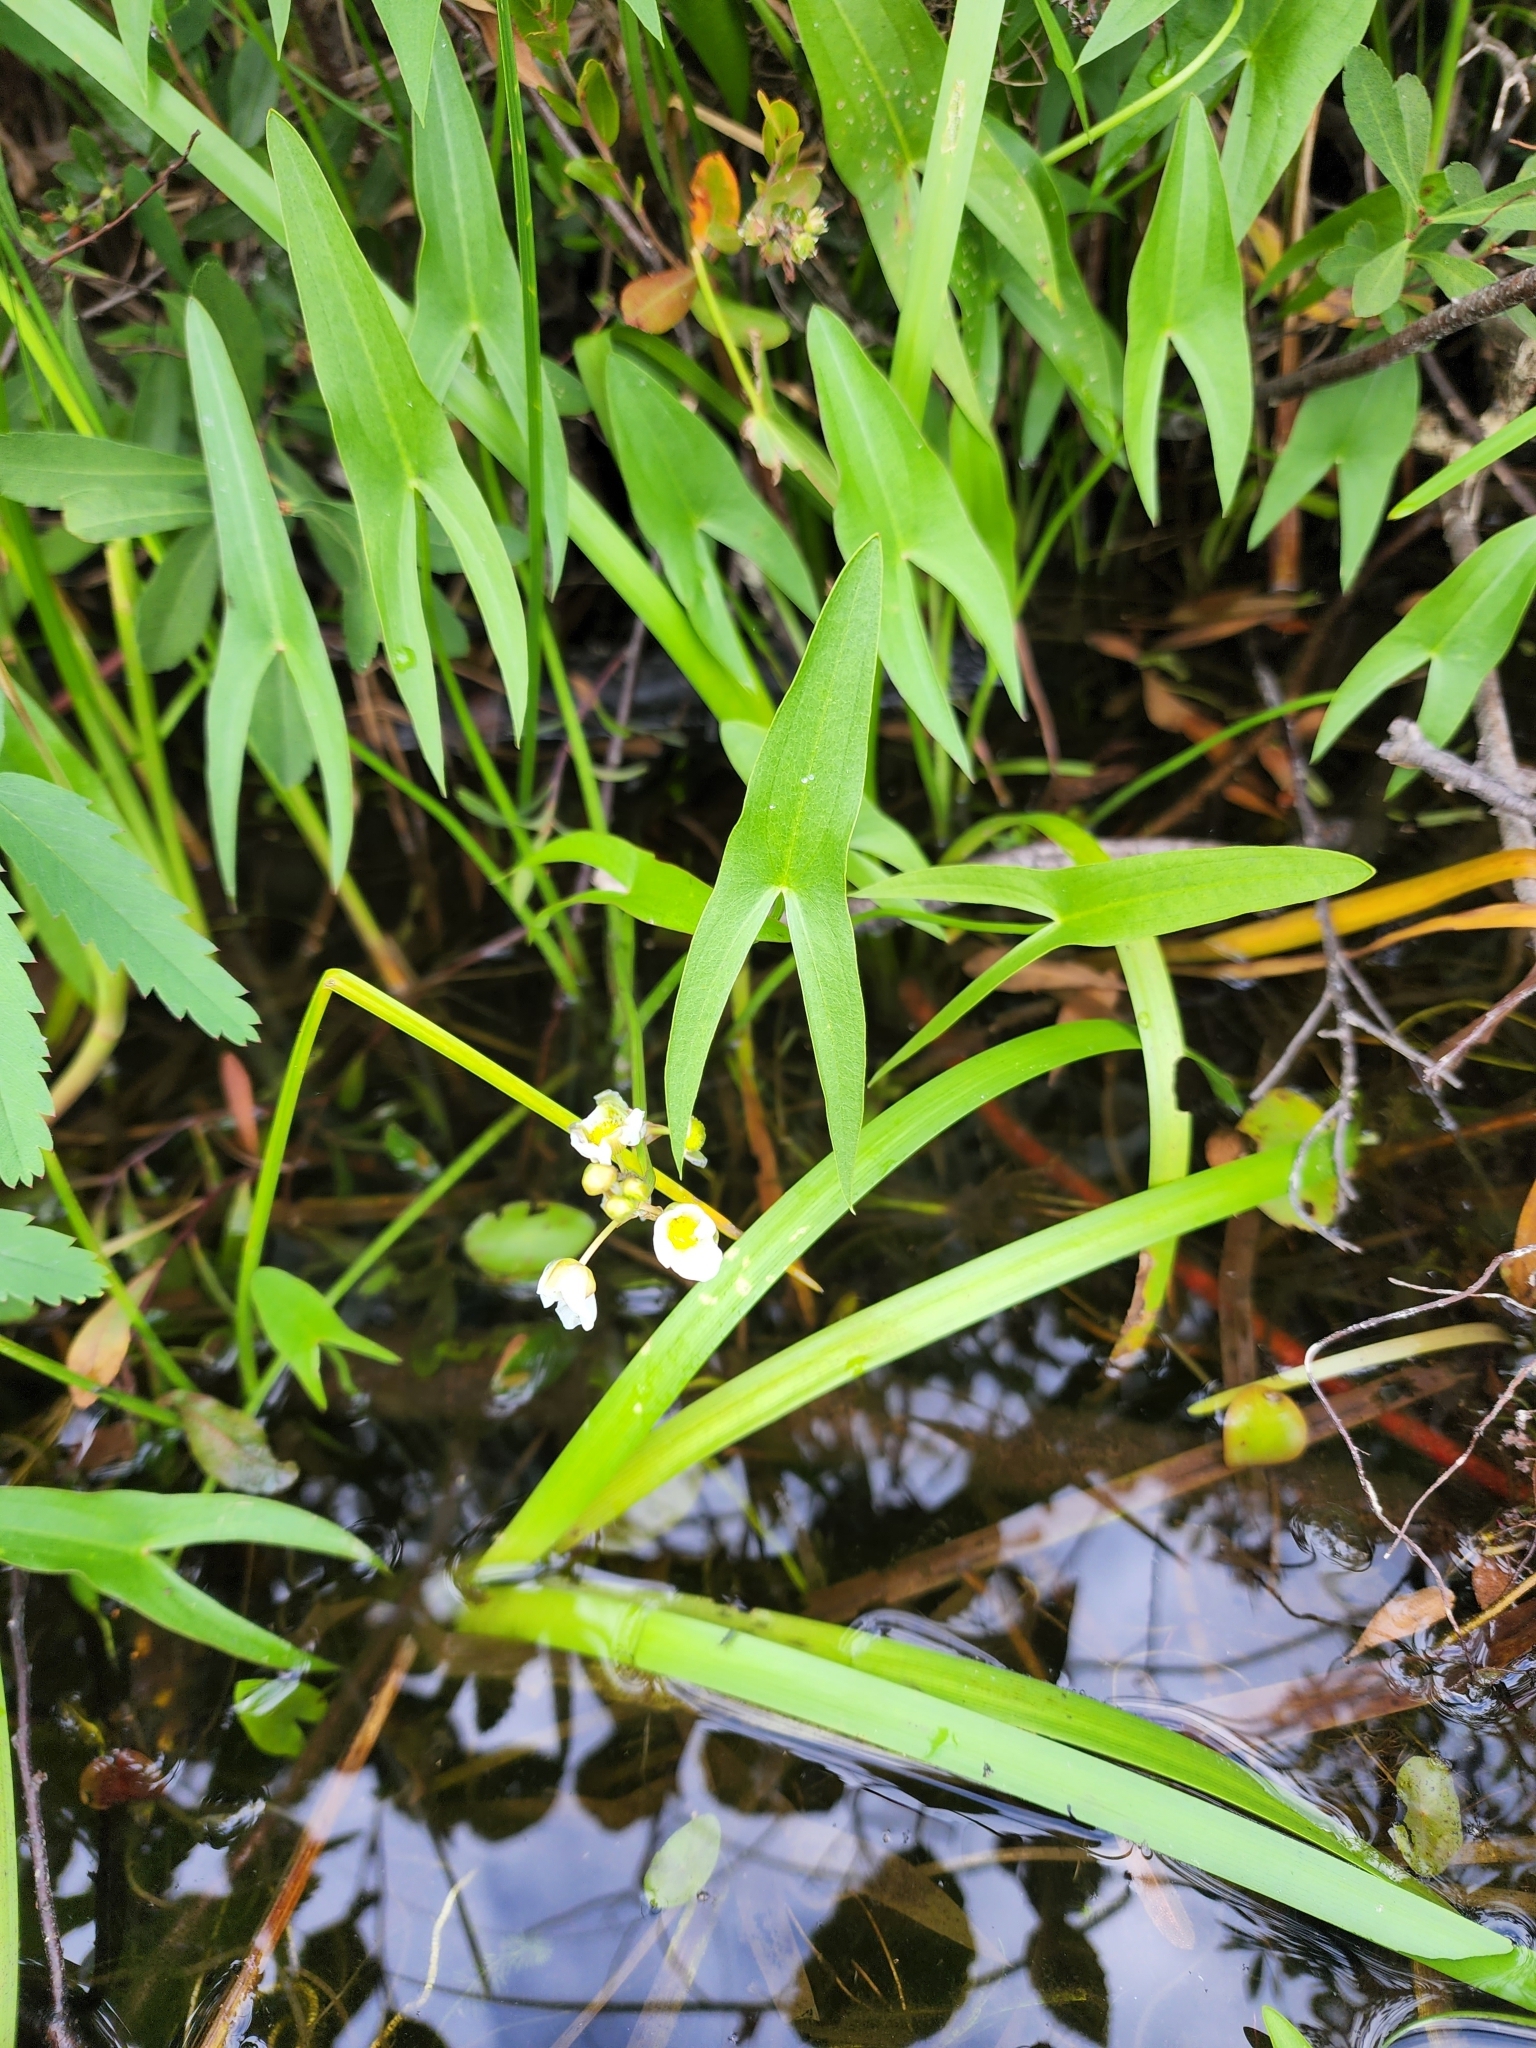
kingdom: Plantae
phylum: Tracheophyta
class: Liliopsida
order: Alismatales
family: Alismataceae
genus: Sagittaria
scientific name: Sagittaria latifolia
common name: Duck-potato
